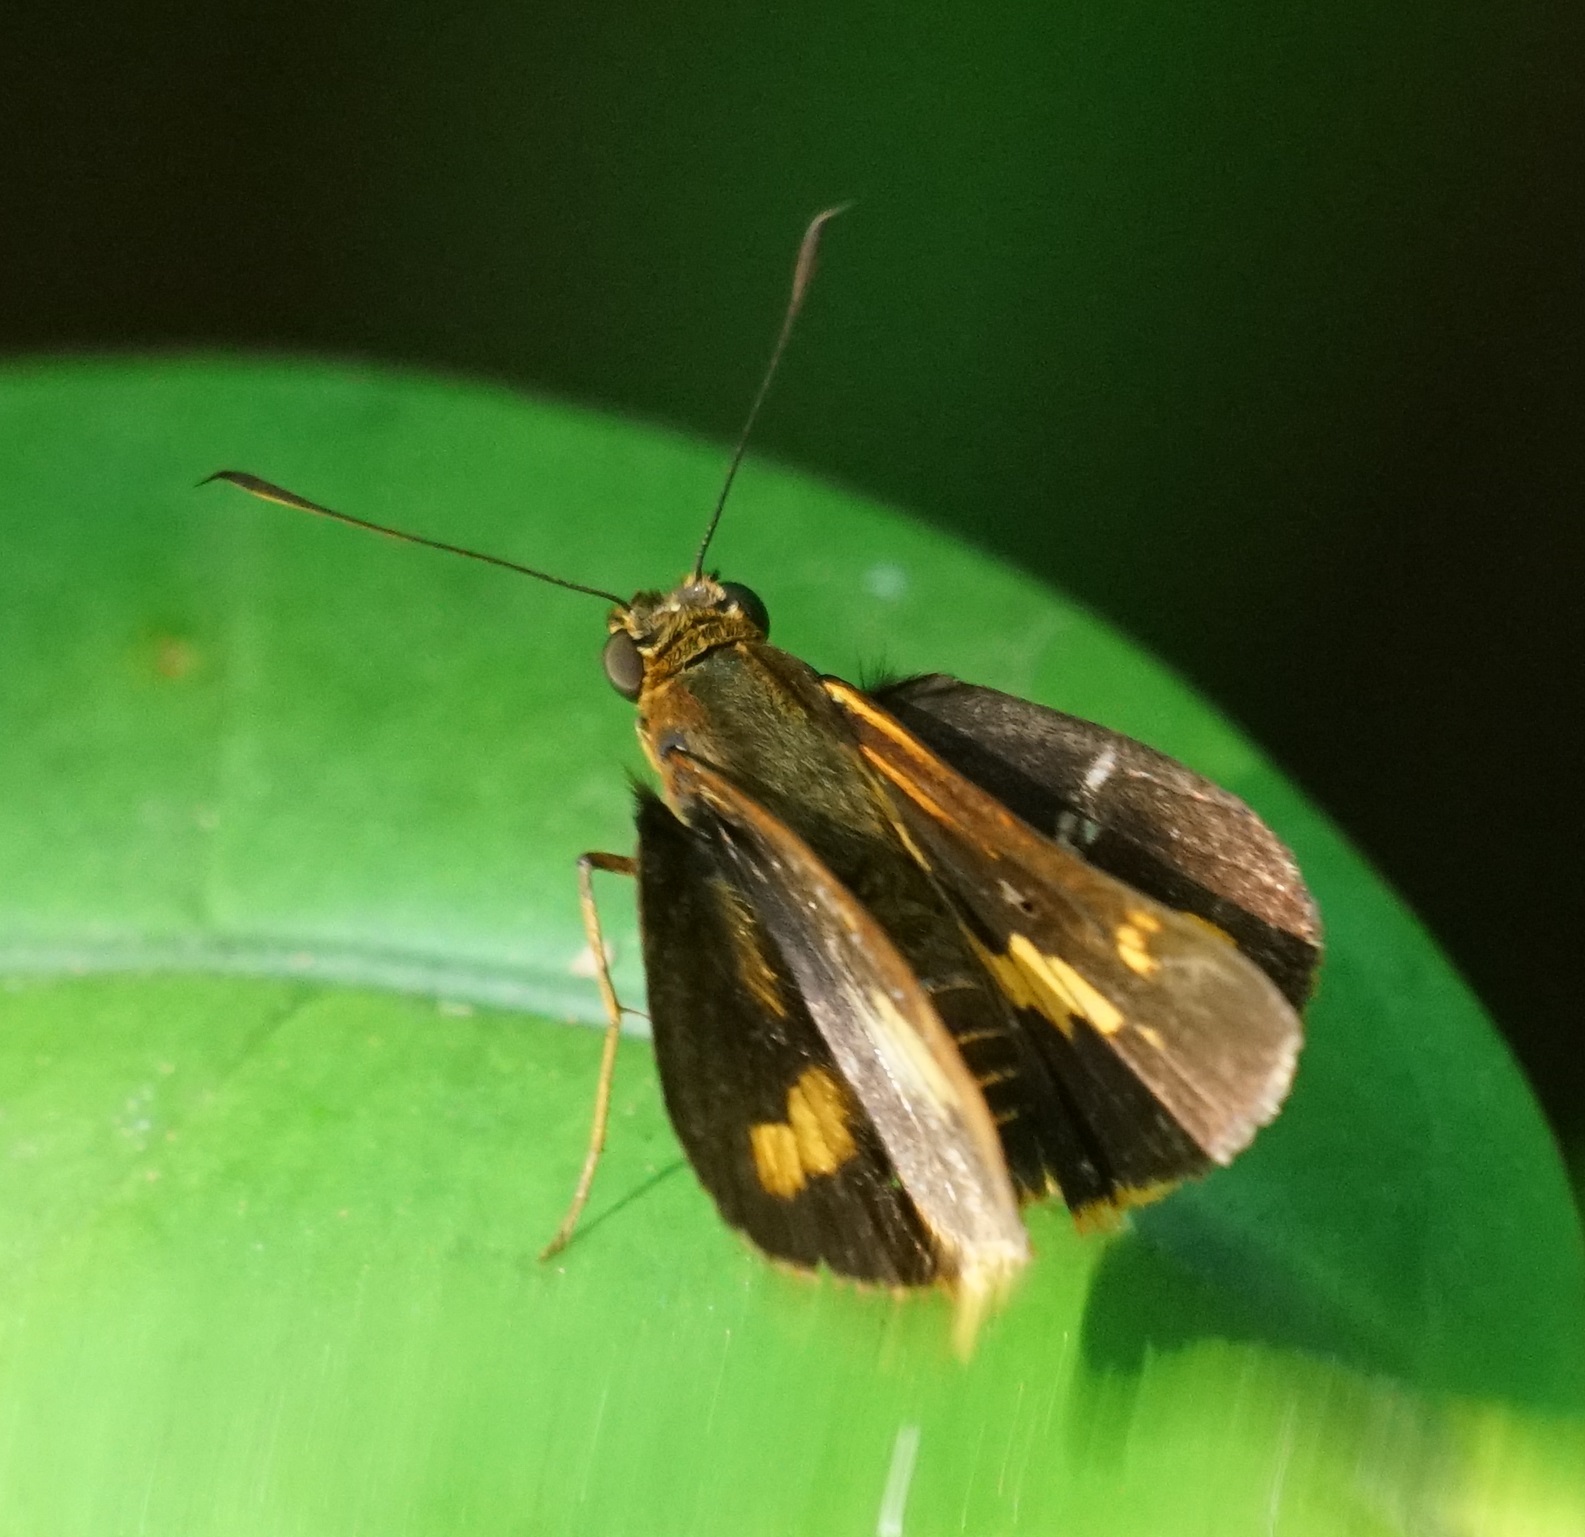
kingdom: Animalia
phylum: Arthropoda
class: Insecta
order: Lepidoptera
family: Hesperiidae
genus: Sabera
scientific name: Sabera dobboe
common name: Yellow-streaked swift
